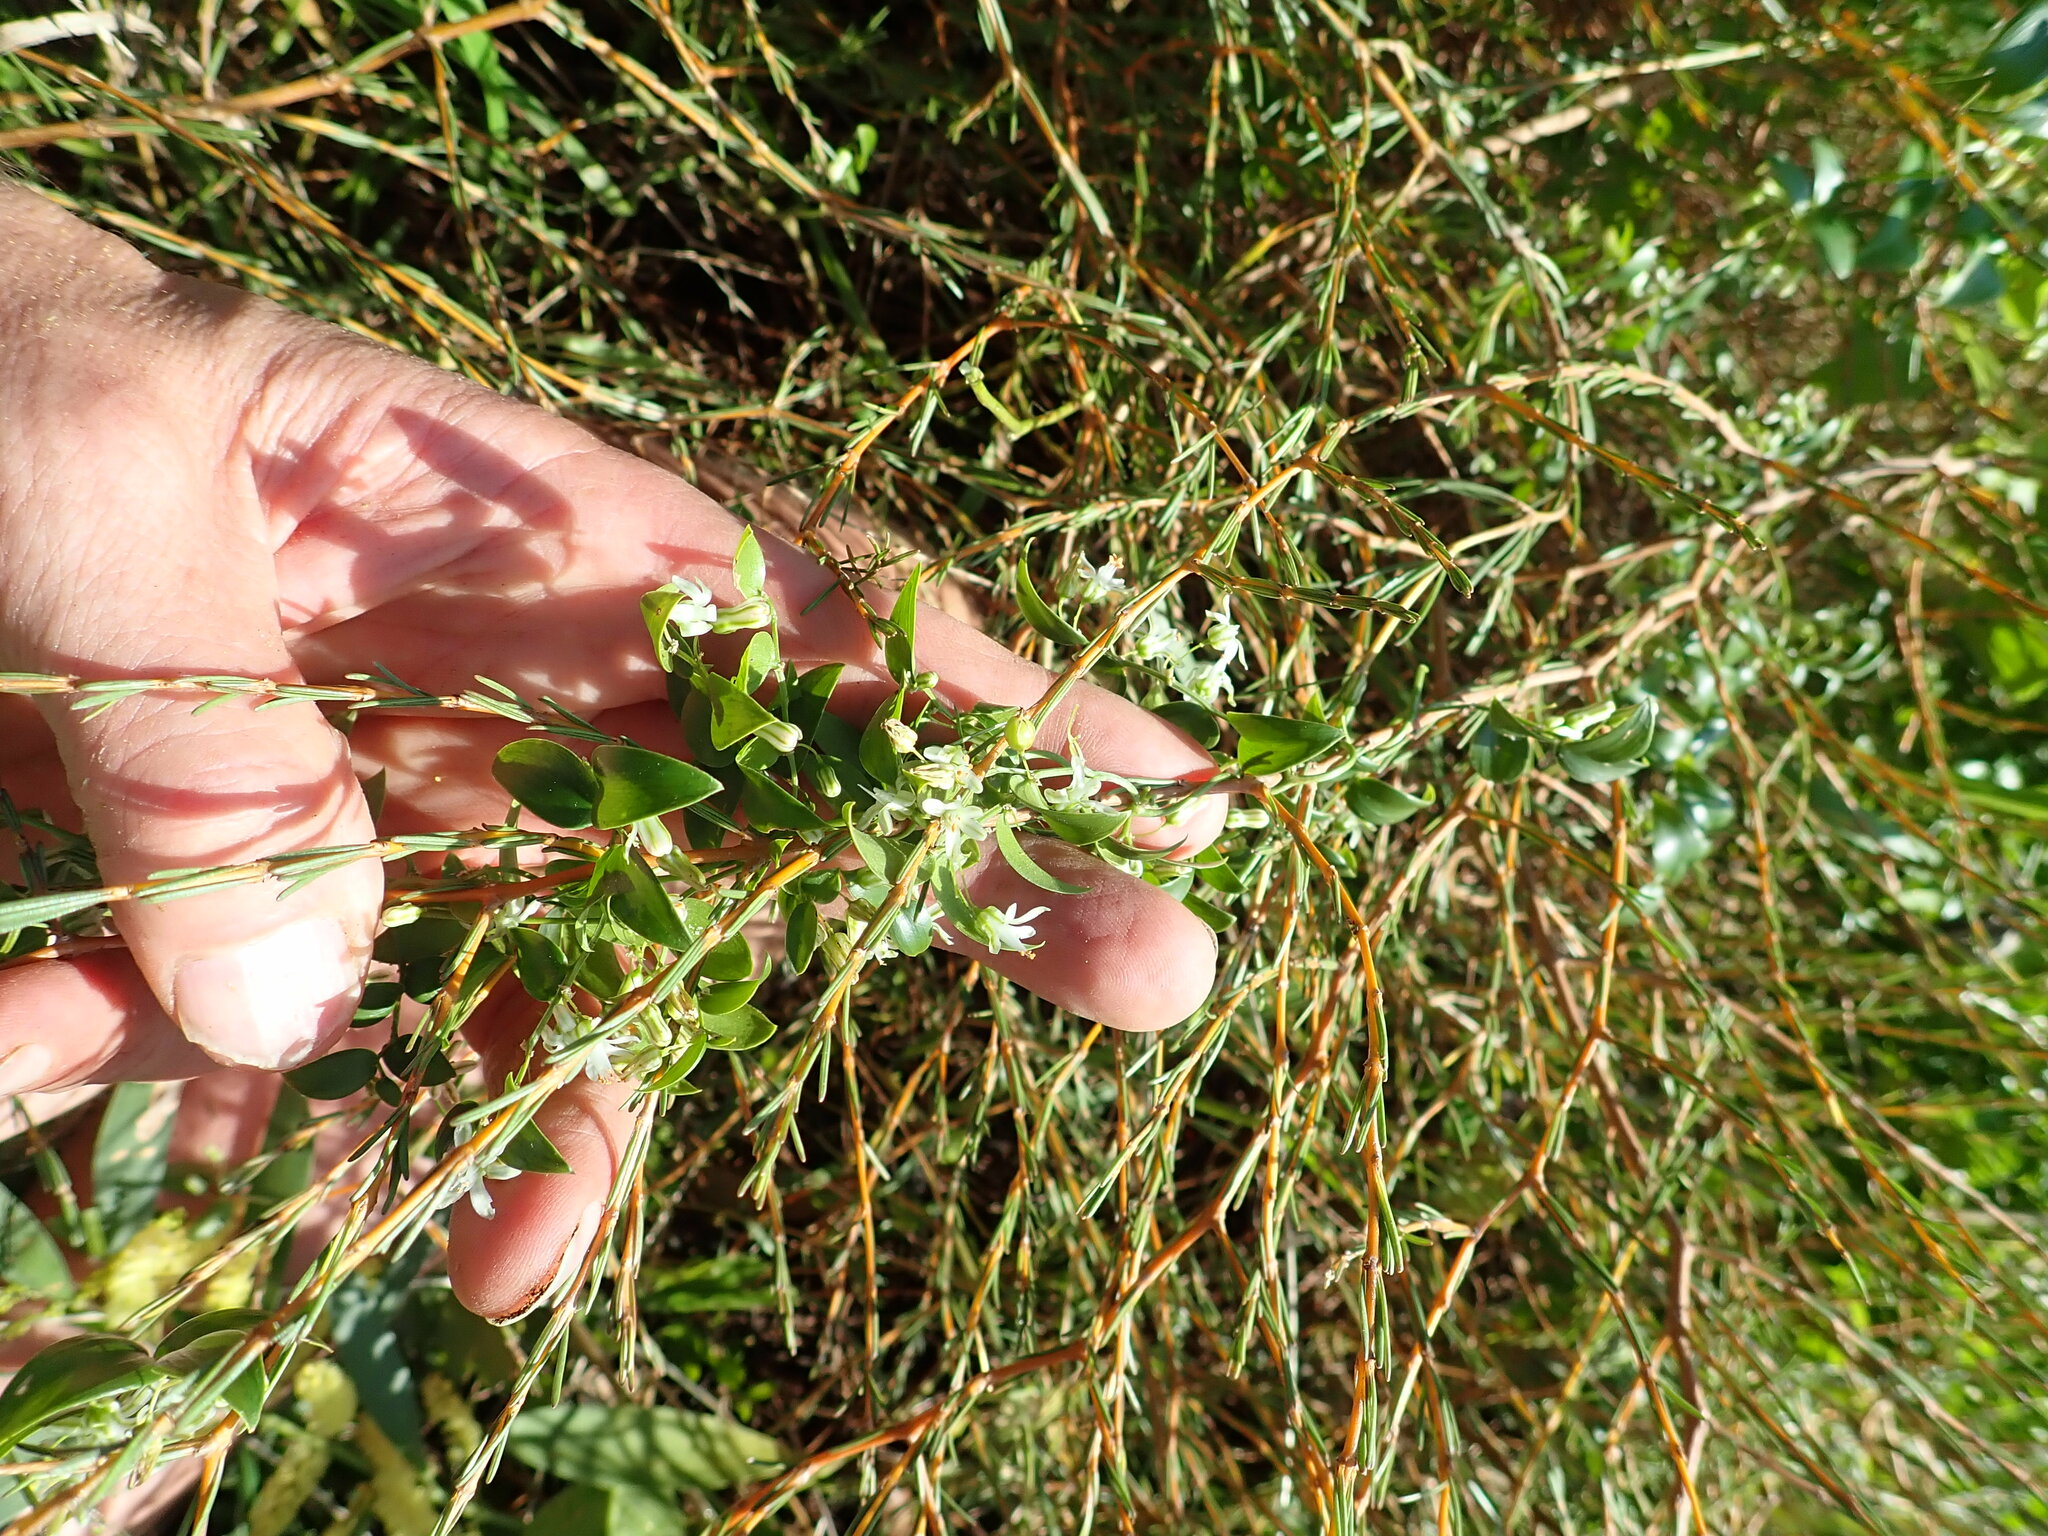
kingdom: Plantae
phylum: Tracheophyta
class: Liliopsida
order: Asparagales
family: Asparagaceae
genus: Asparagus
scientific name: Asparagus asparagoides
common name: African asparagus fern
